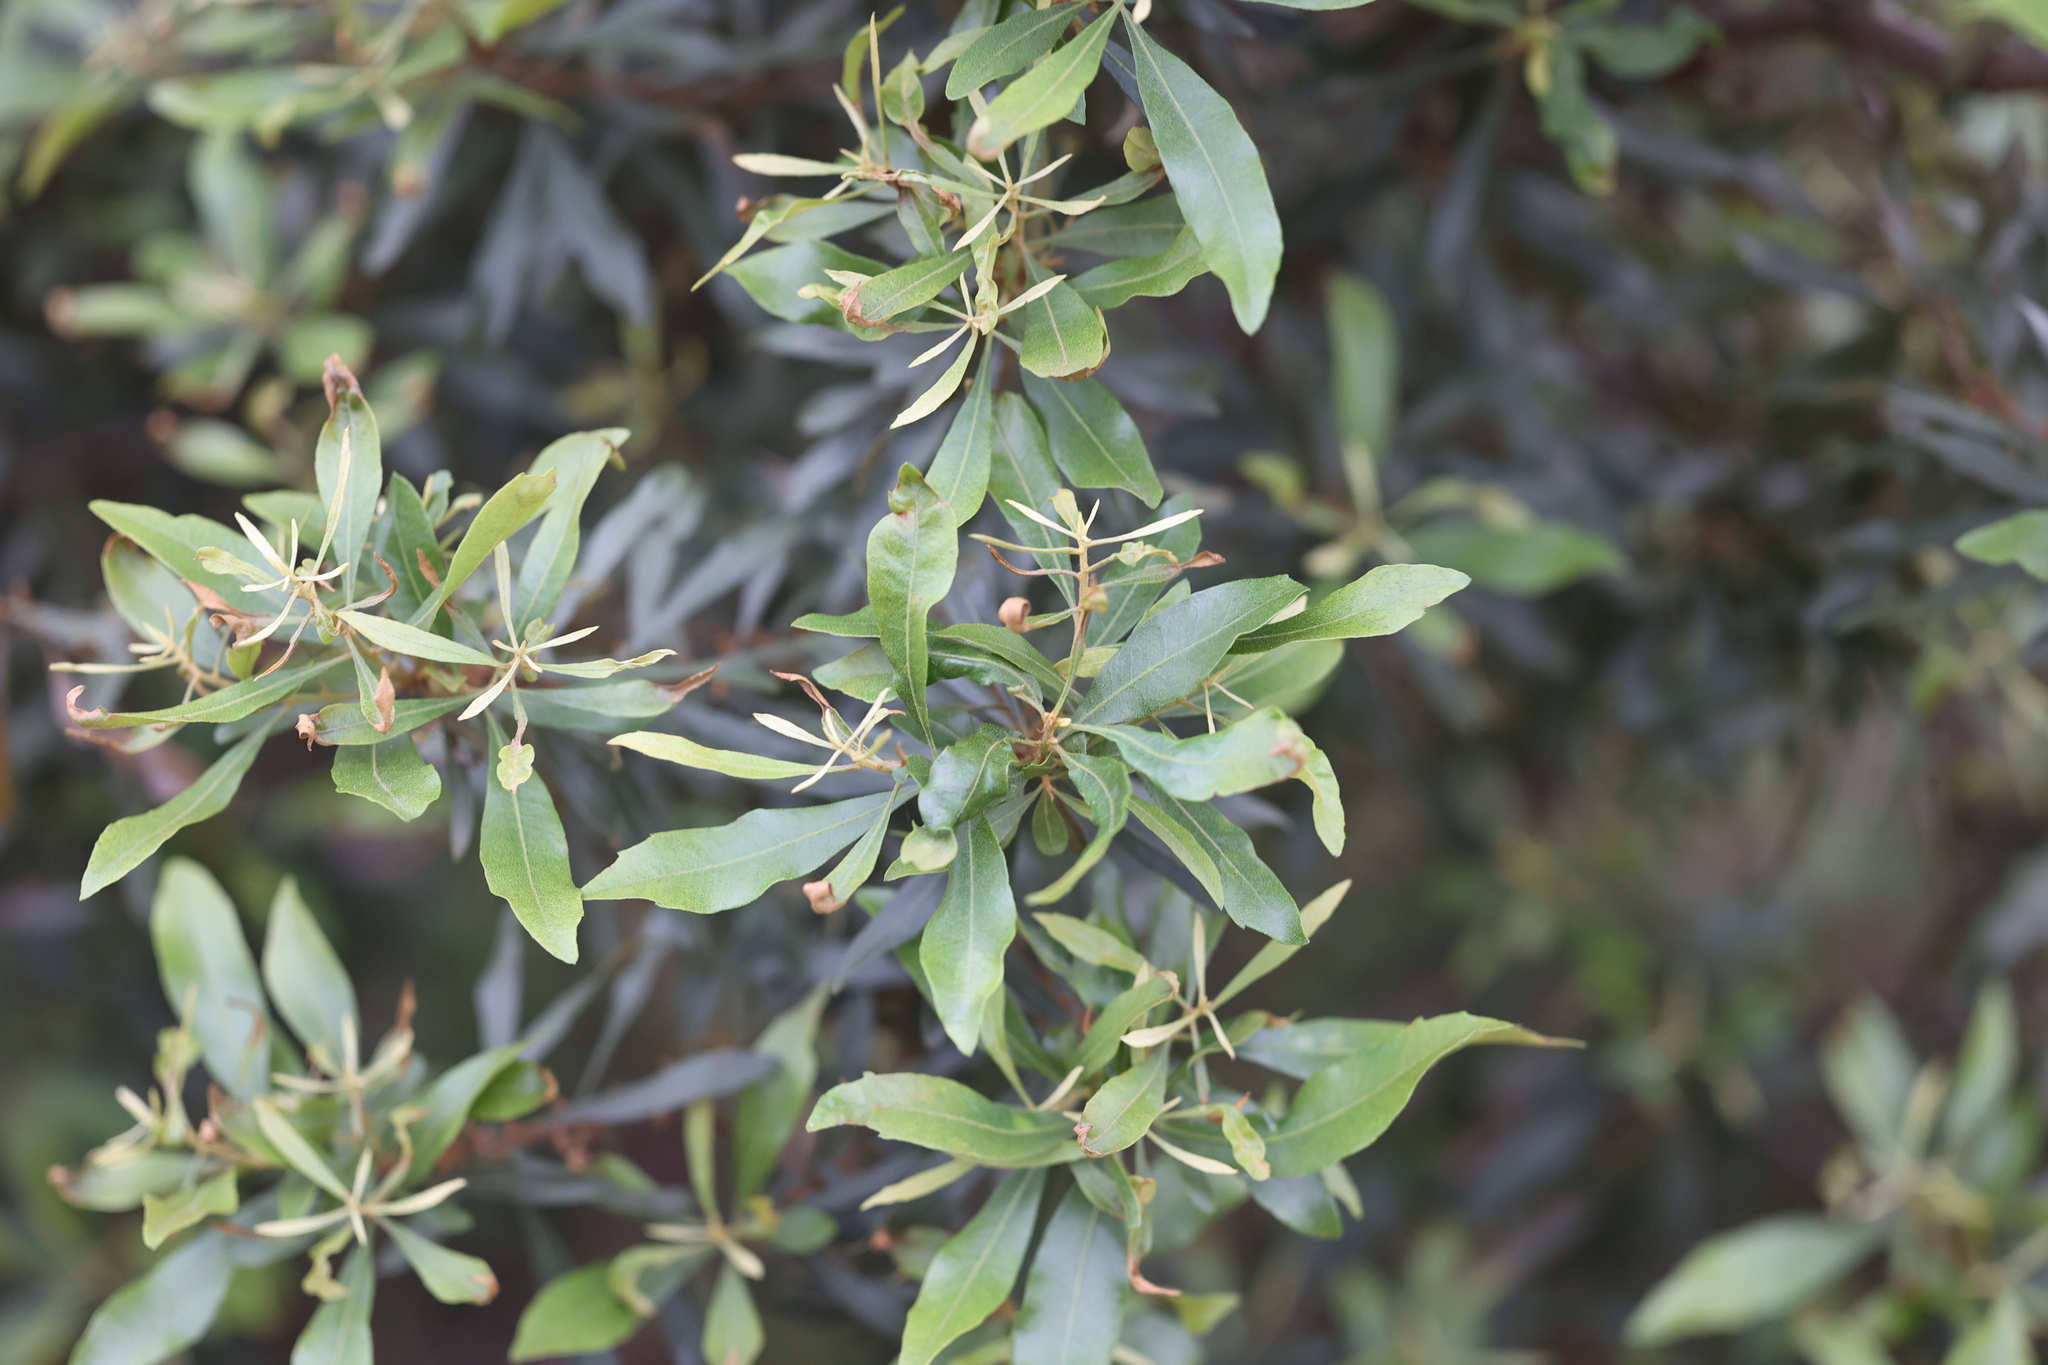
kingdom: Plantae
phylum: Tracheophyta
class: Magnoliopsida
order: Fagales
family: Myricaceae
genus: Morella
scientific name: Morella cerifera
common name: Wax myrtle
